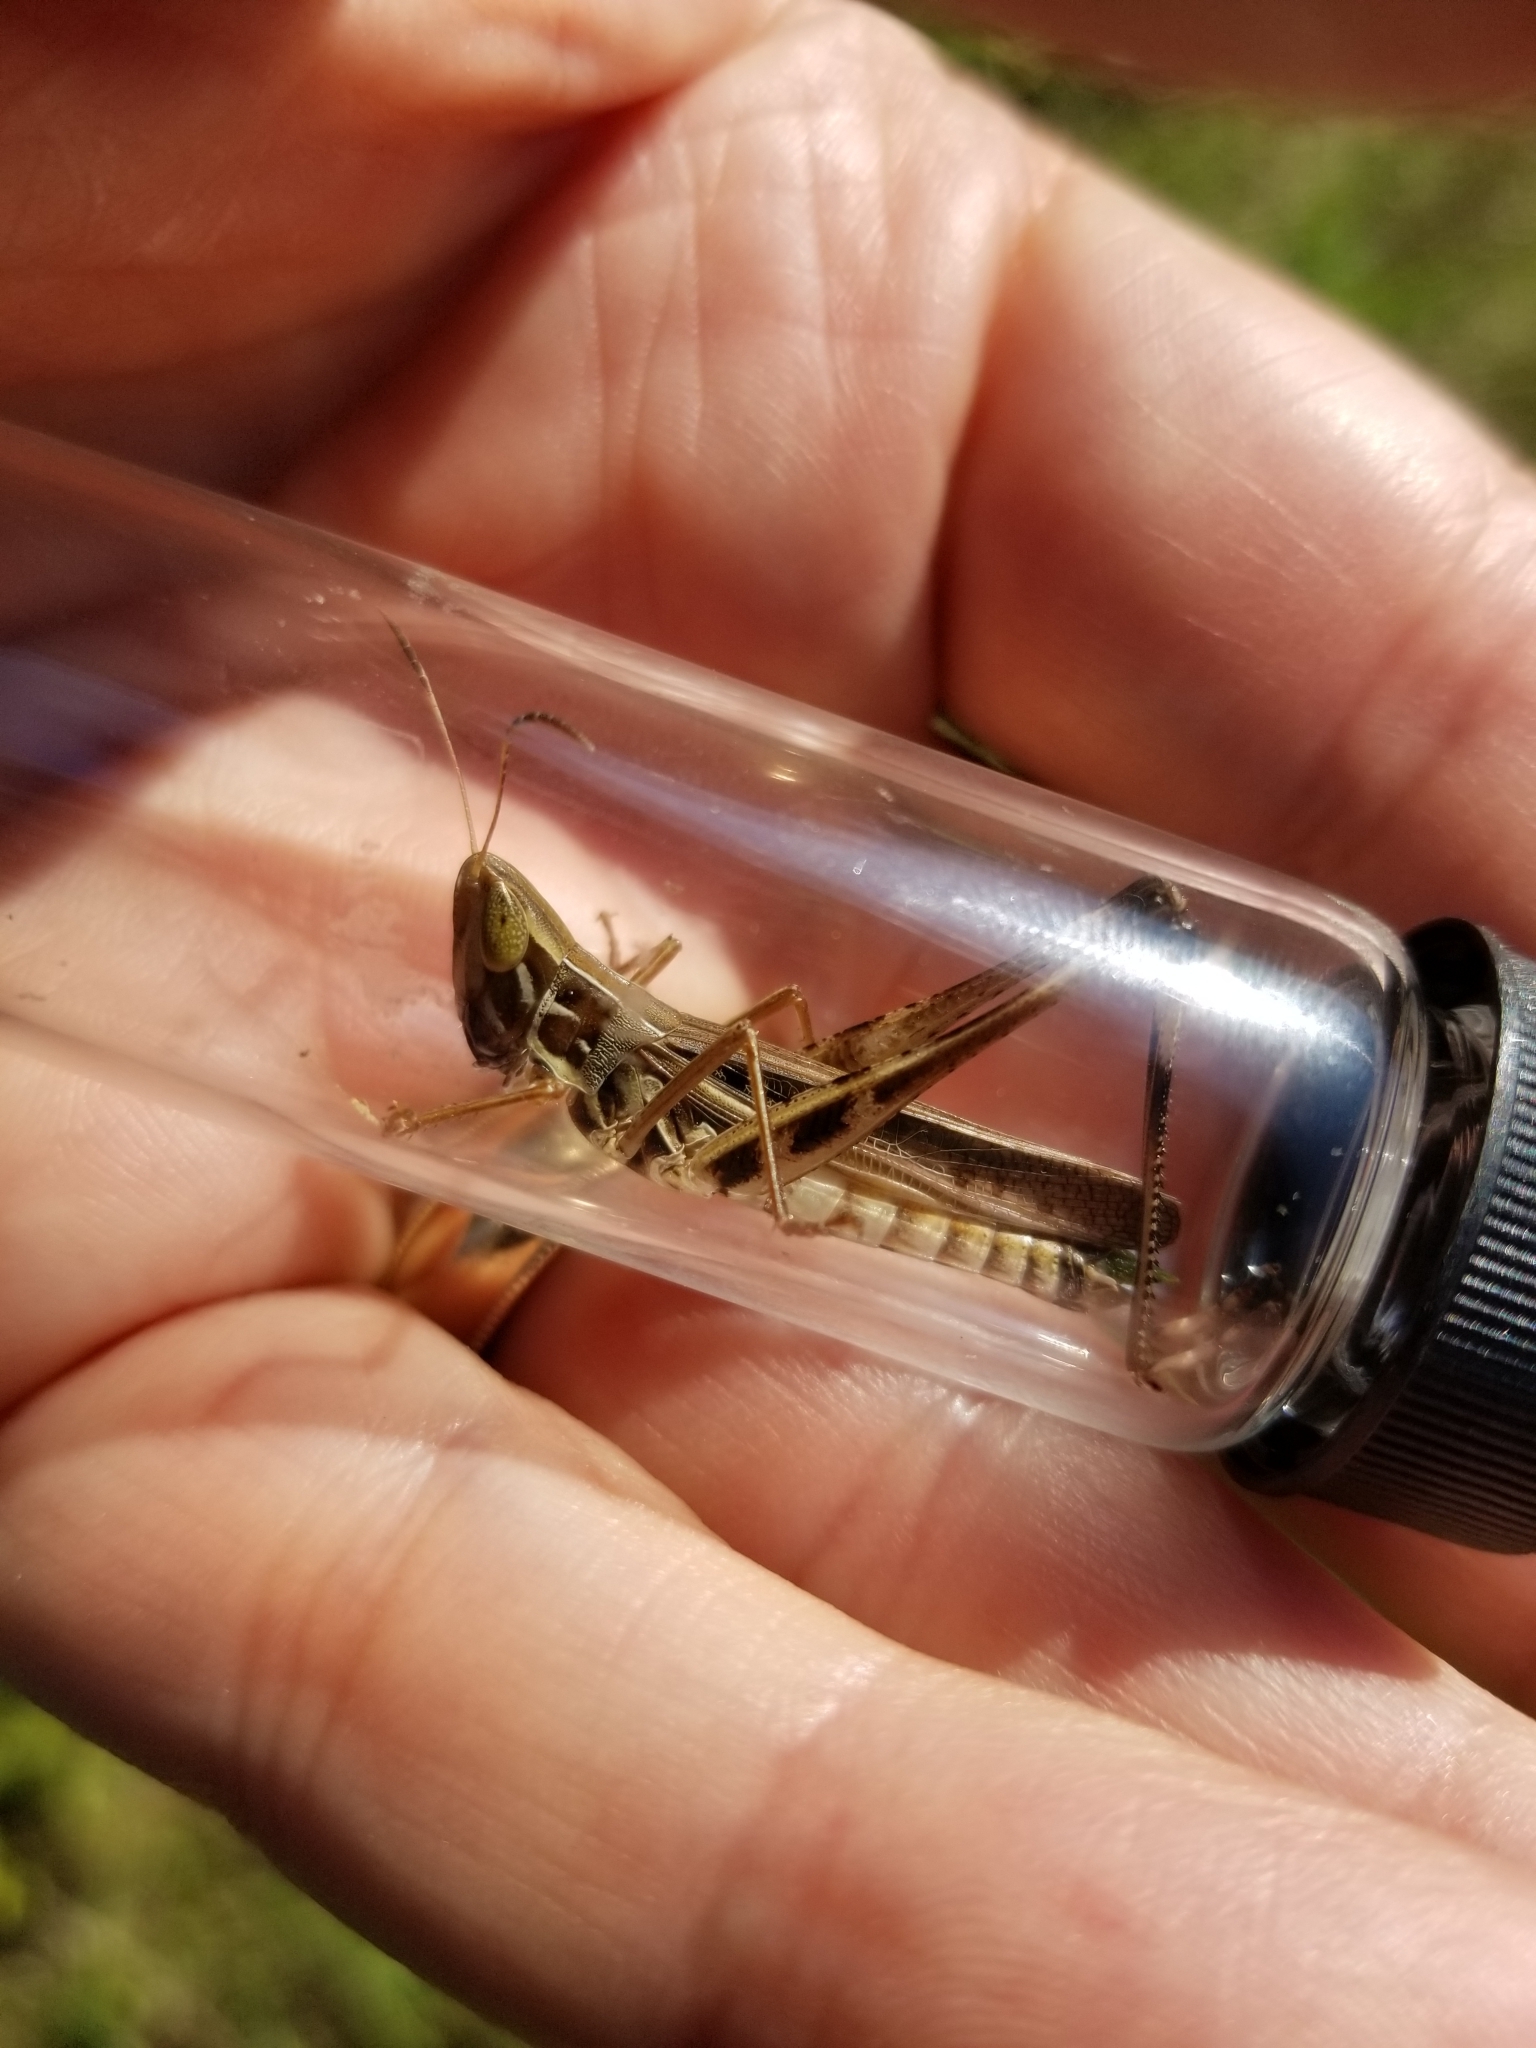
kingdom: Animalia
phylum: Arthropoda
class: Insecta
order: Orthoptera
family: Acrididae
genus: Syrbula
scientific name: Syrbula admirabilis
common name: Handsome grasshopper
